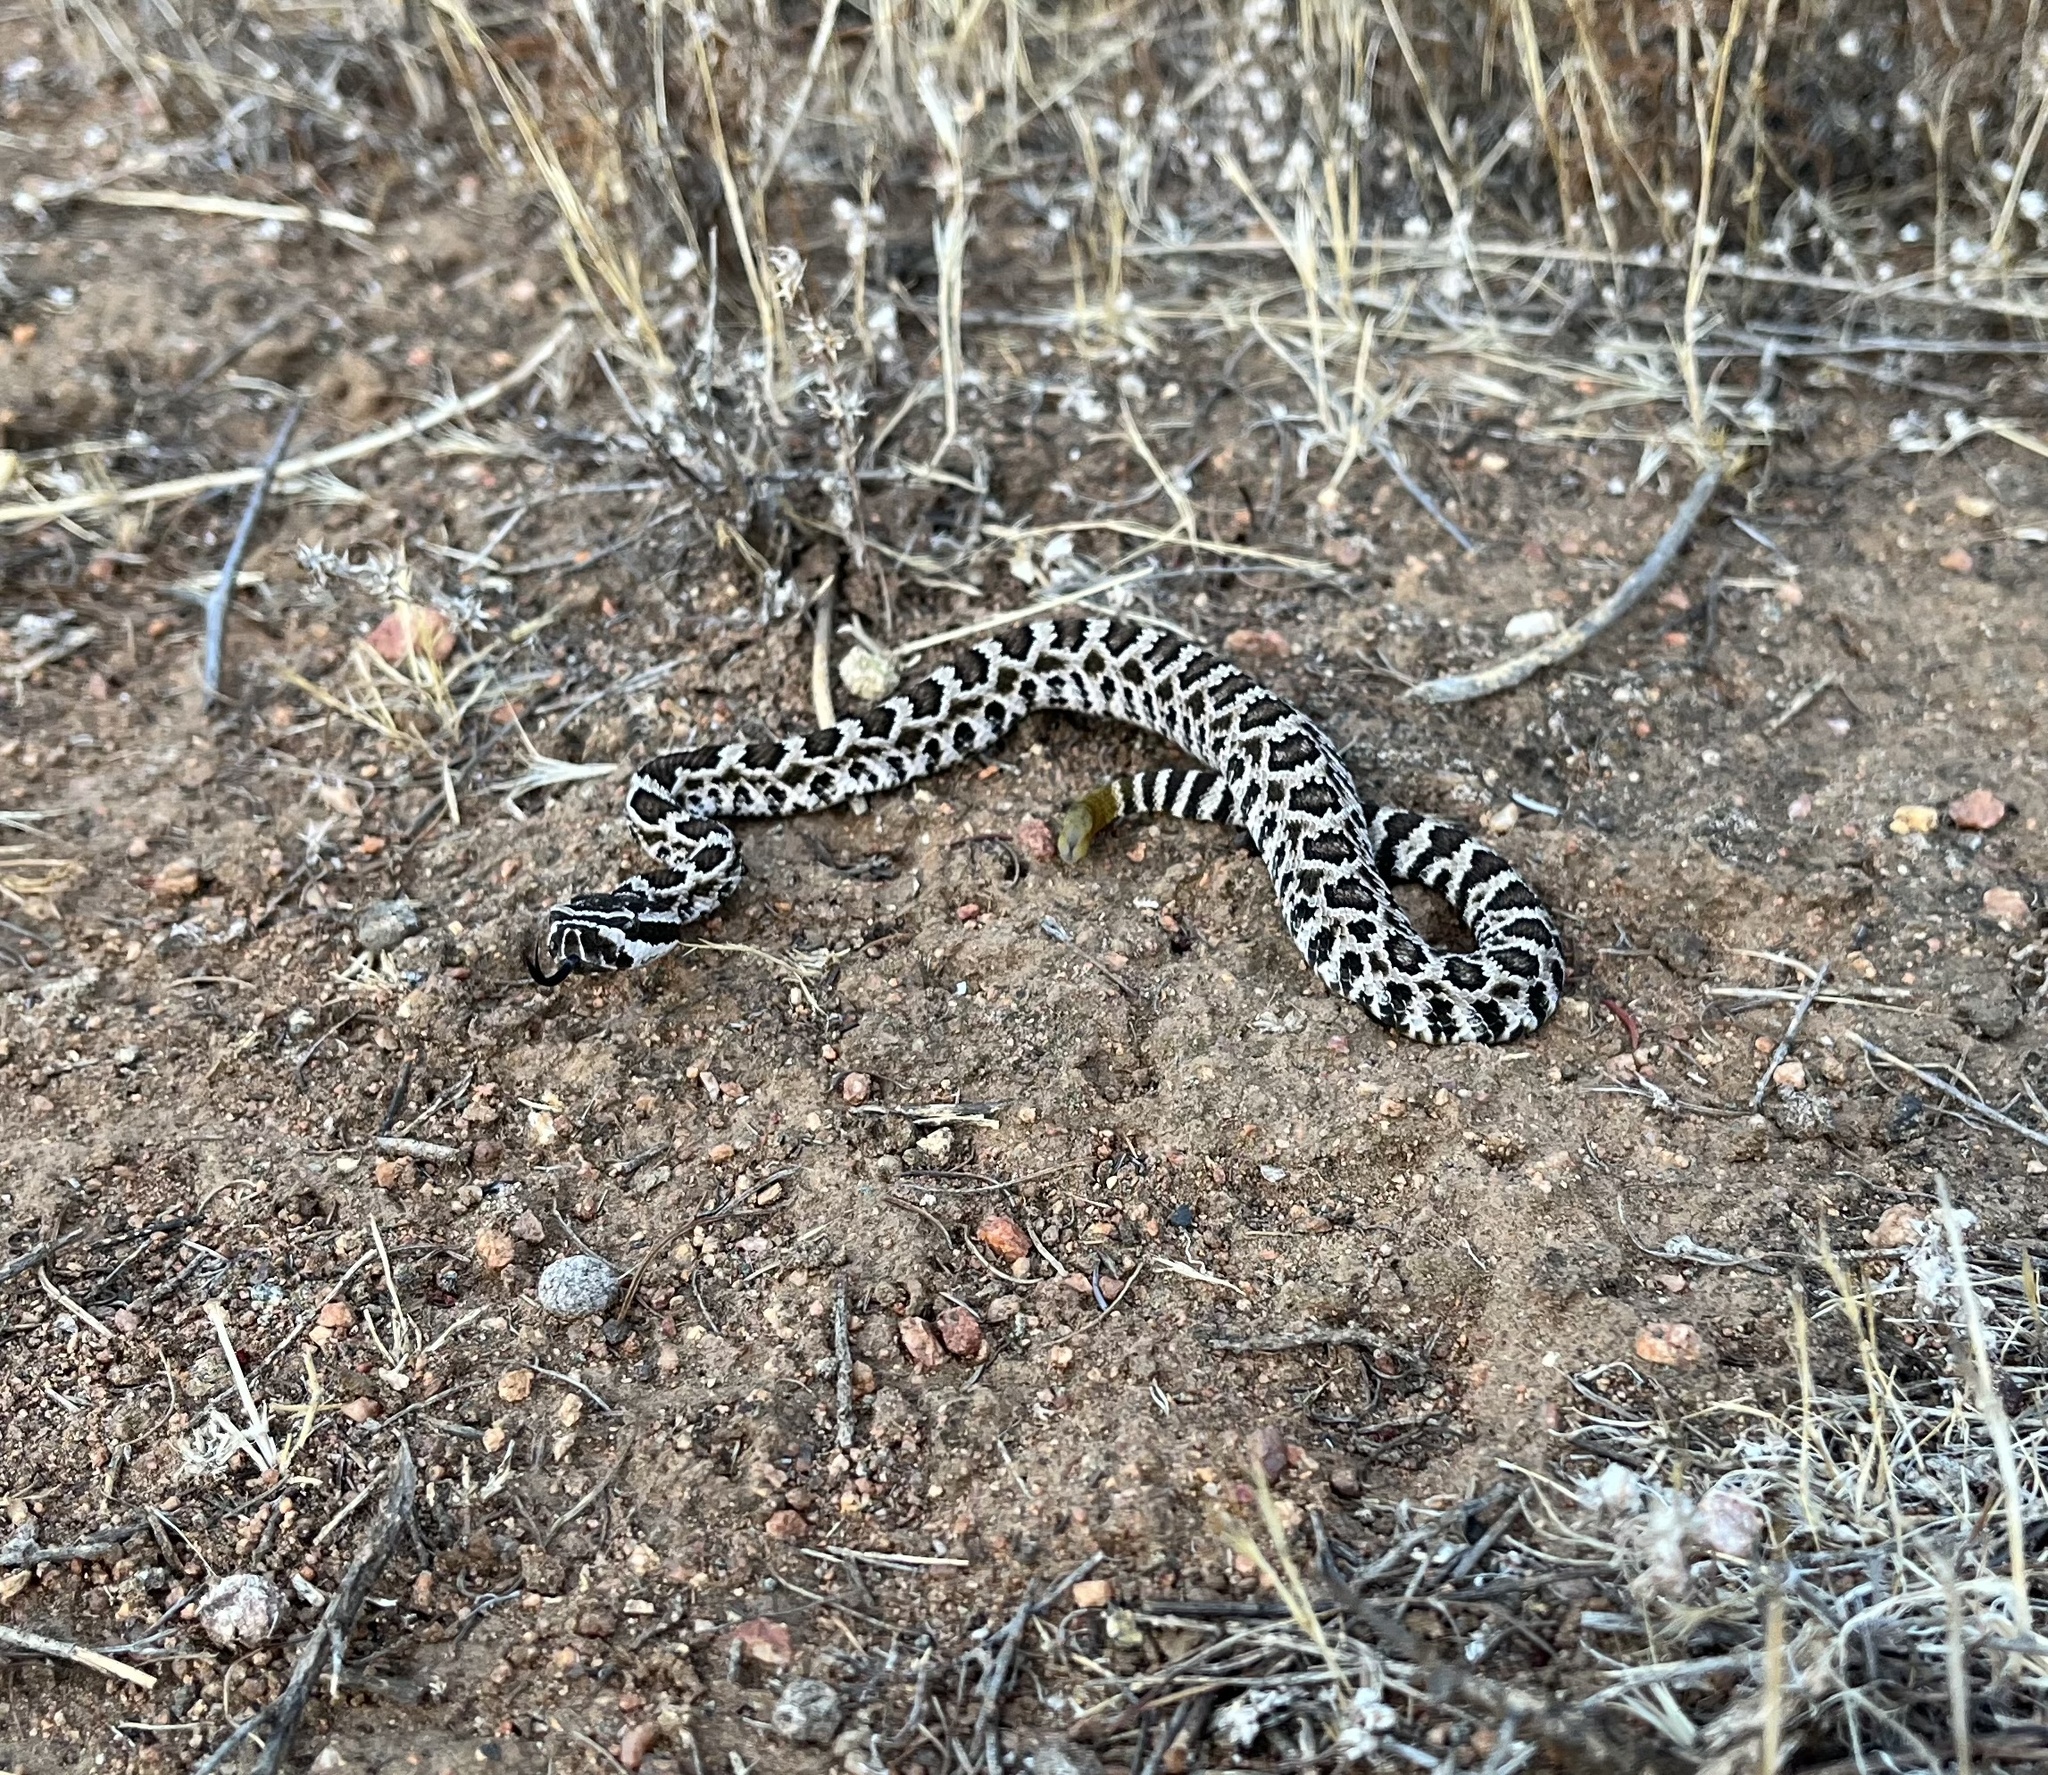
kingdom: Animalia
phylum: Chordata
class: Squamata
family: Viperidae
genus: Crotalus
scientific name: Crotalus oreganus
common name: Abyssus
